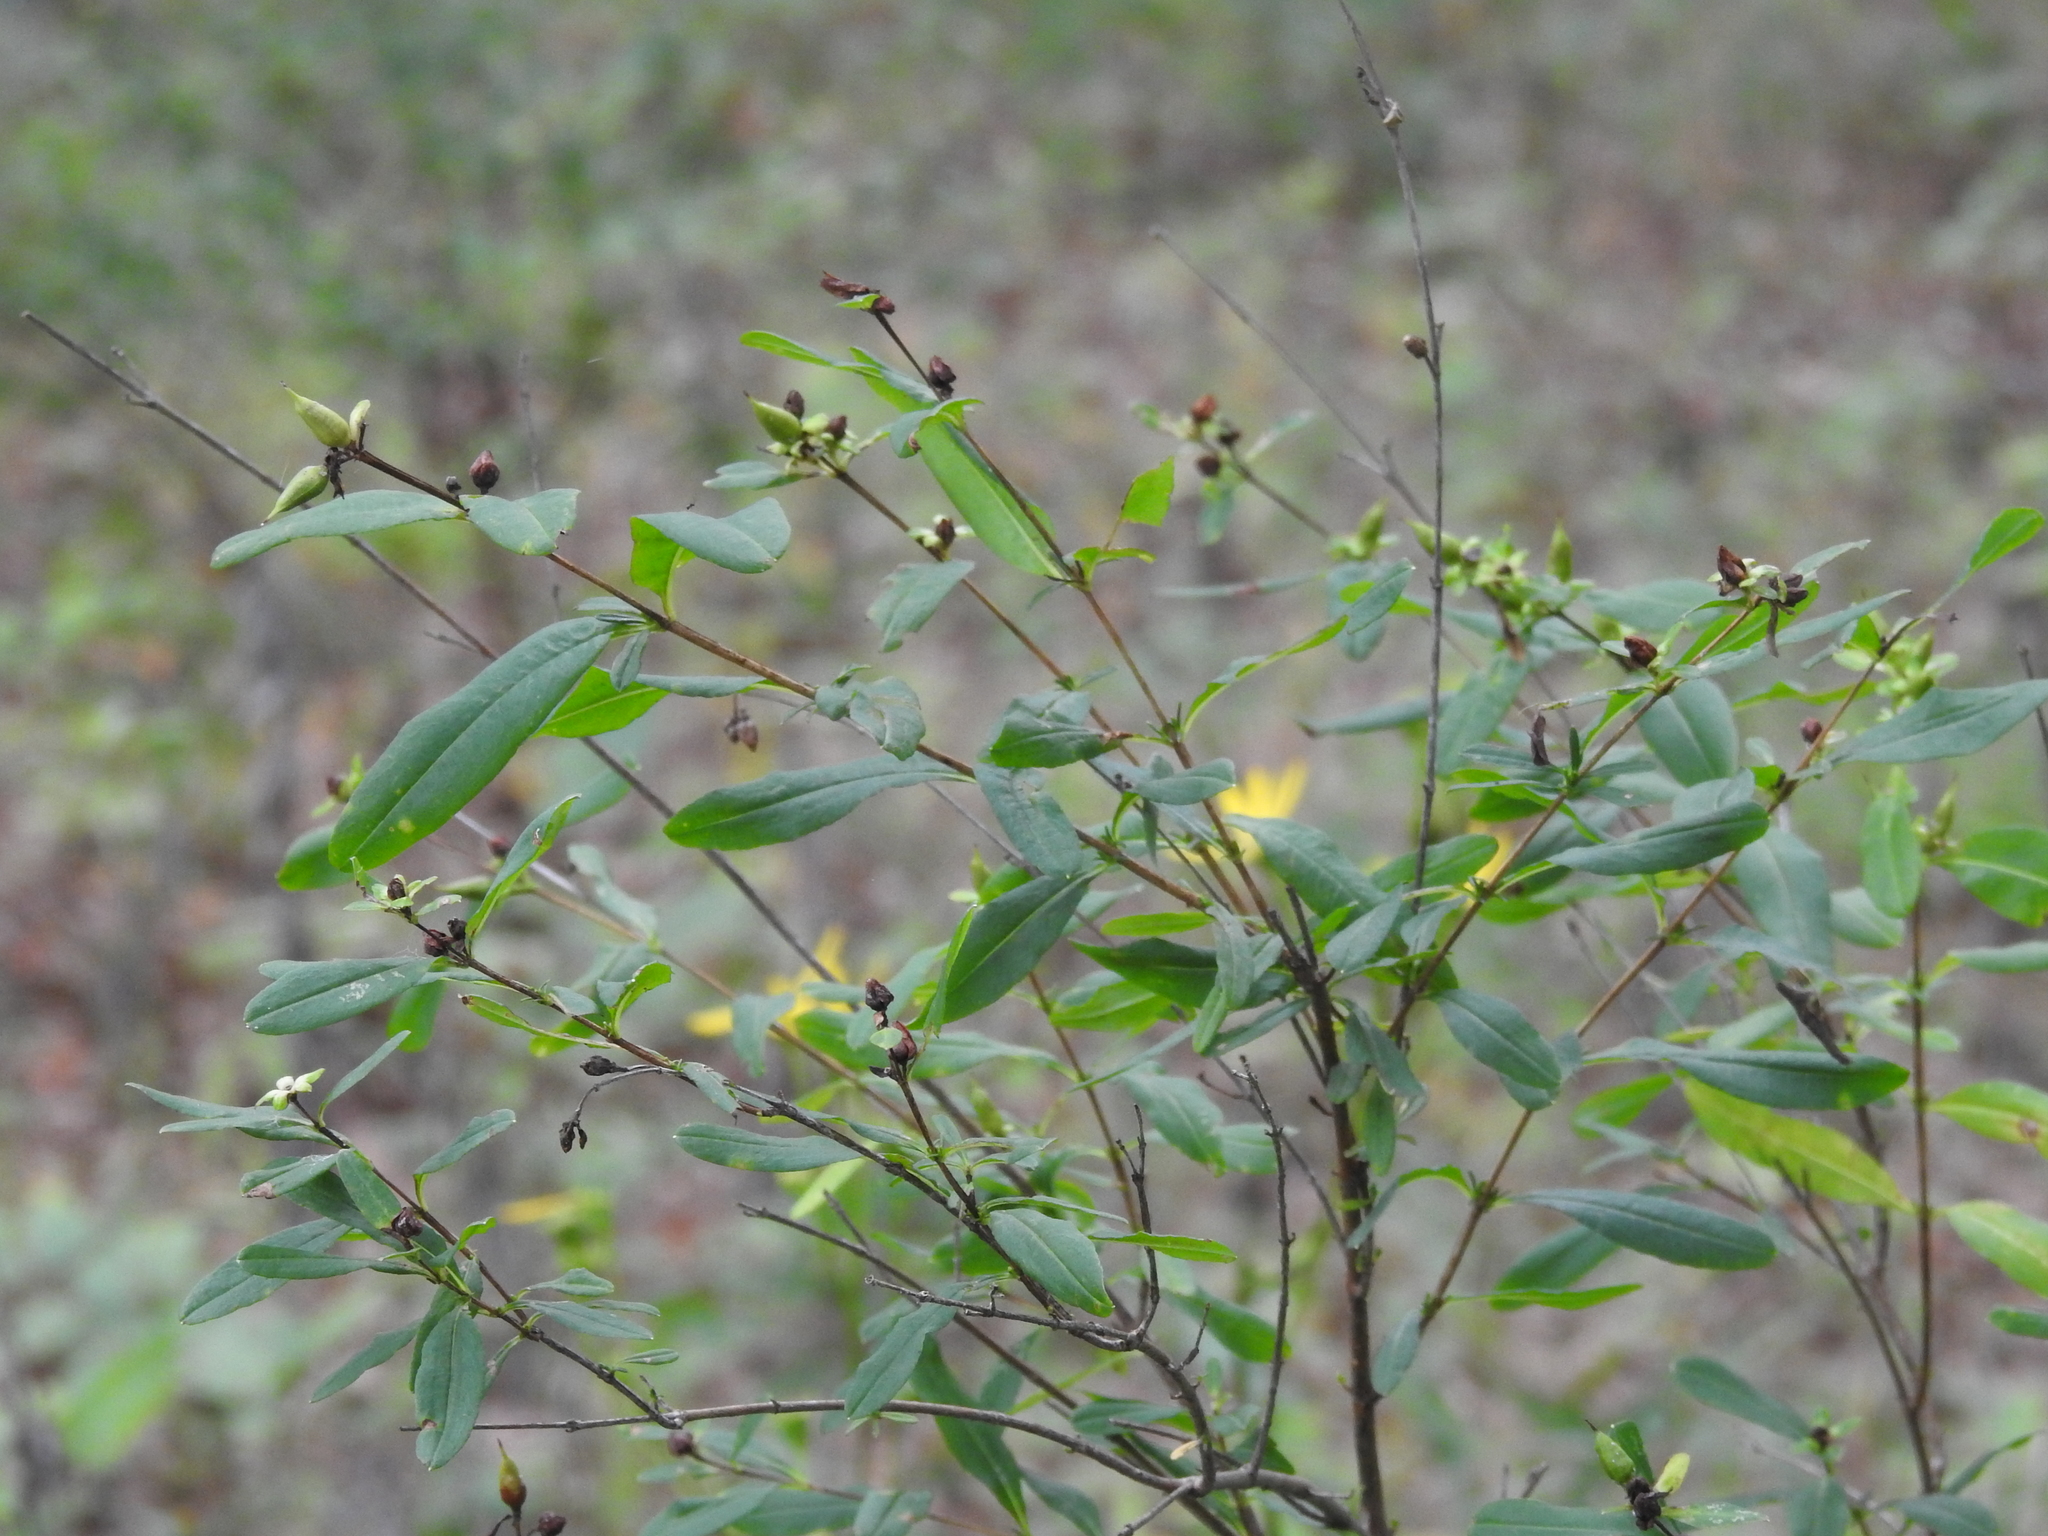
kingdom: Plantae
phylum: Tracheophyta
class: Magnoliopsida
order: Malpighiales
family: Hypericaceae
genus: Hypericum
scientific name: Hypericum prolificum
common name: Shrubby st. john's-wort
